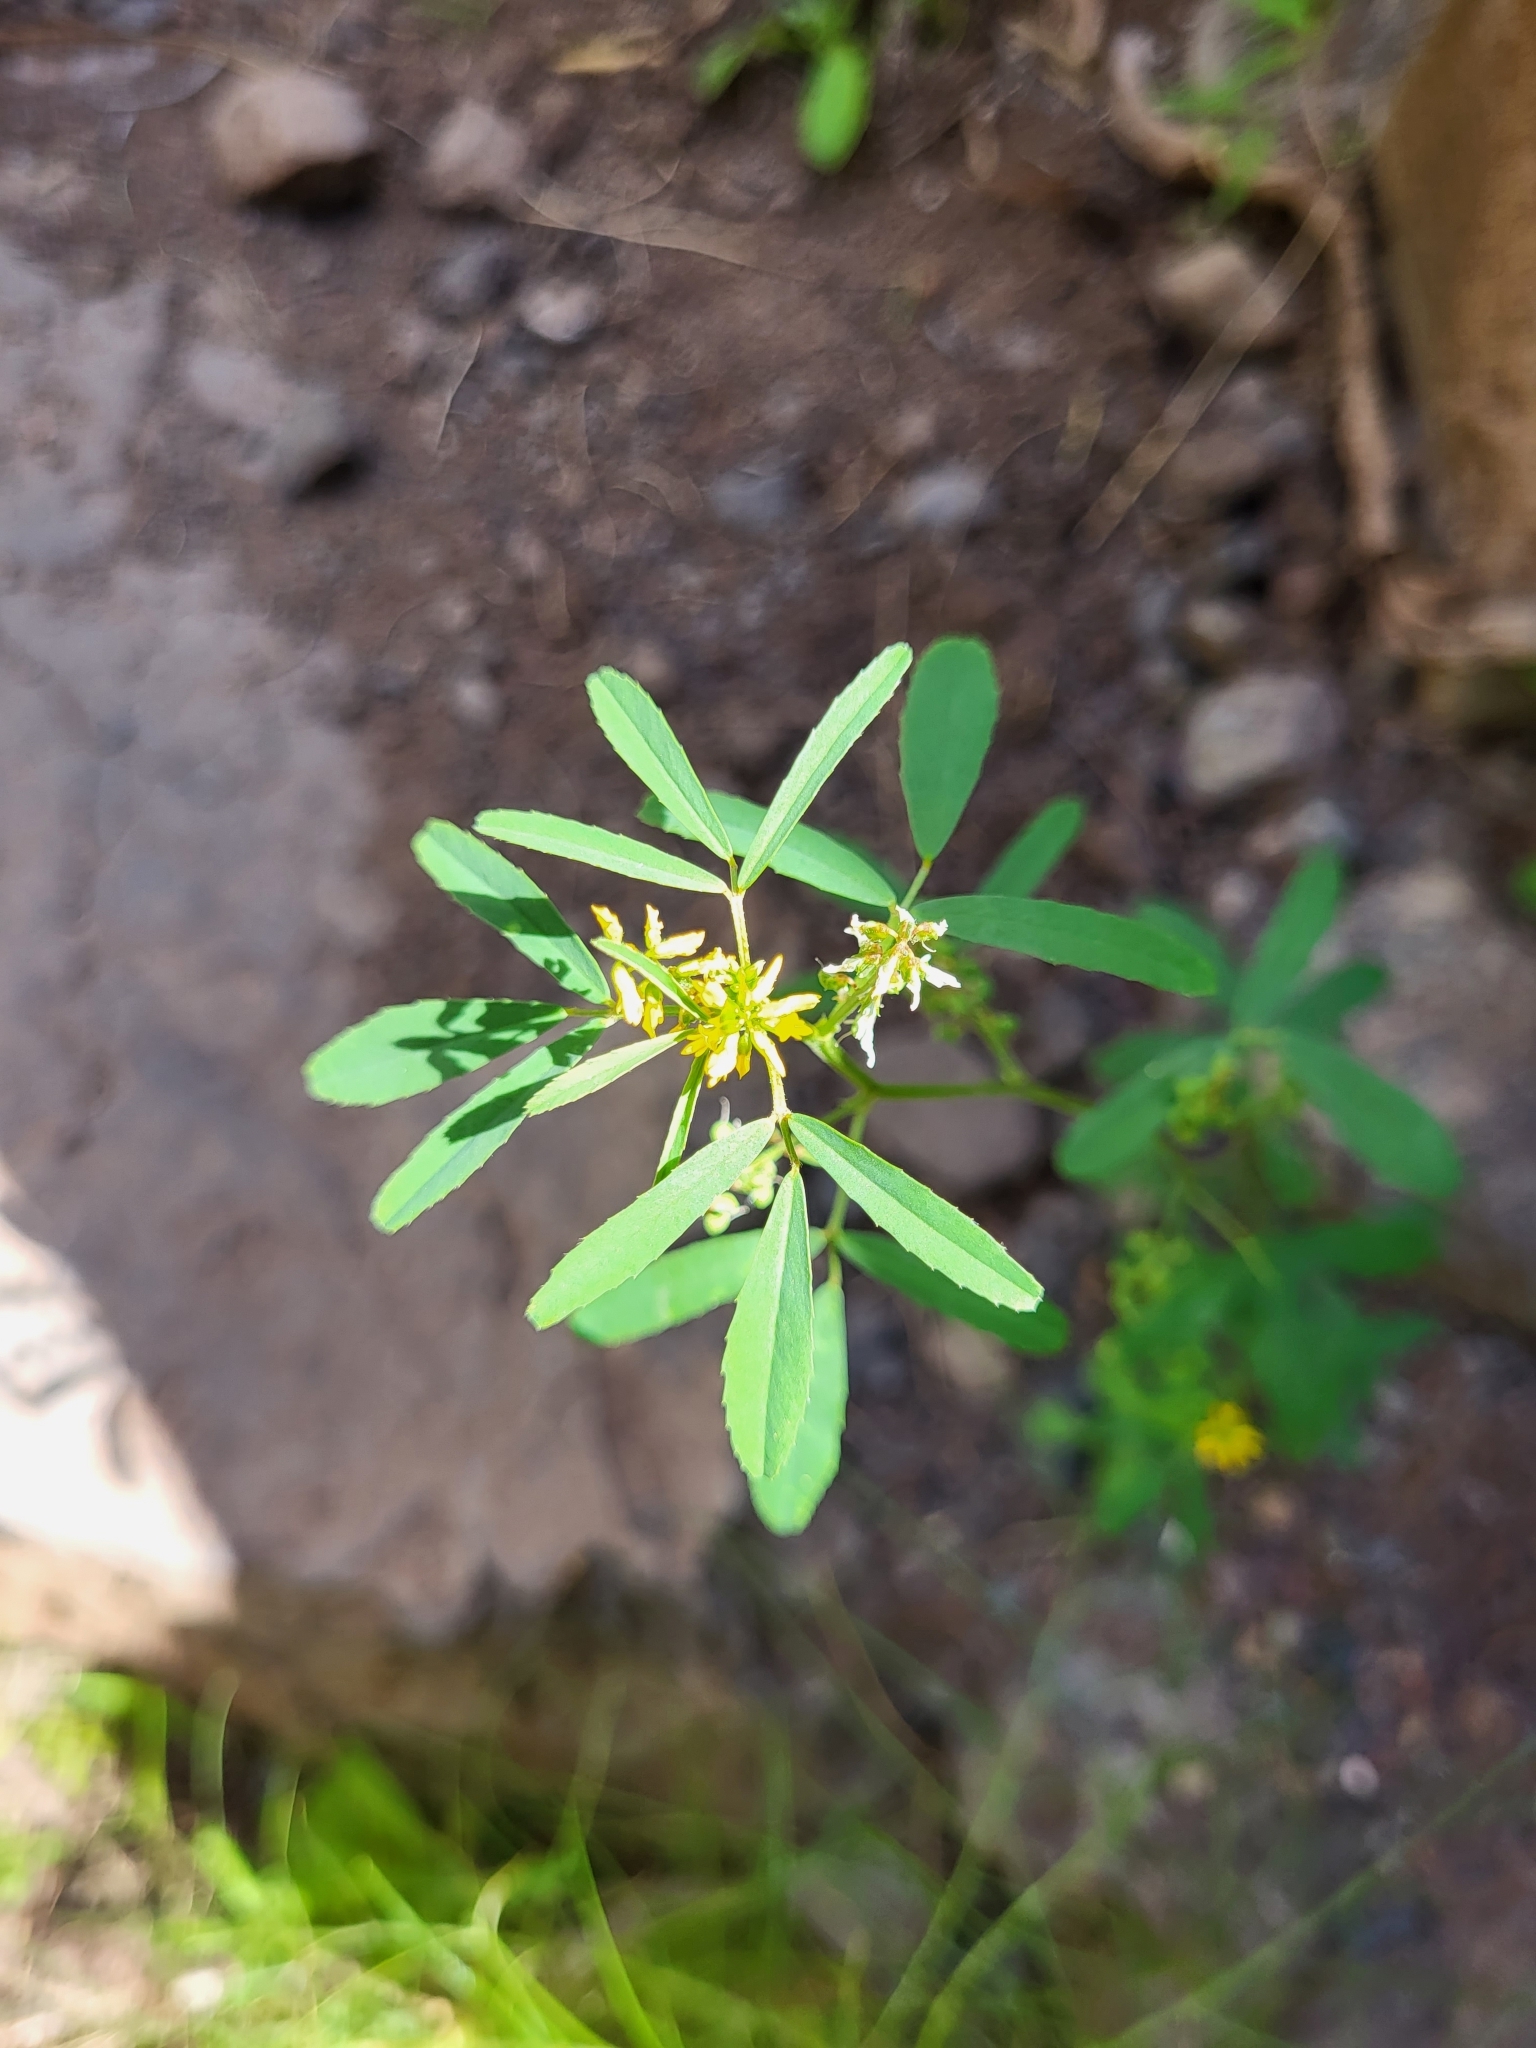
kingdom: Plantae
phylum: Tracheophyta
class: Magnoliopsida
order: Fabales
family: Fabaceae
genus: Melilotus
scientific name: Melilotus sulcatus
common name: Furrowed melilot
